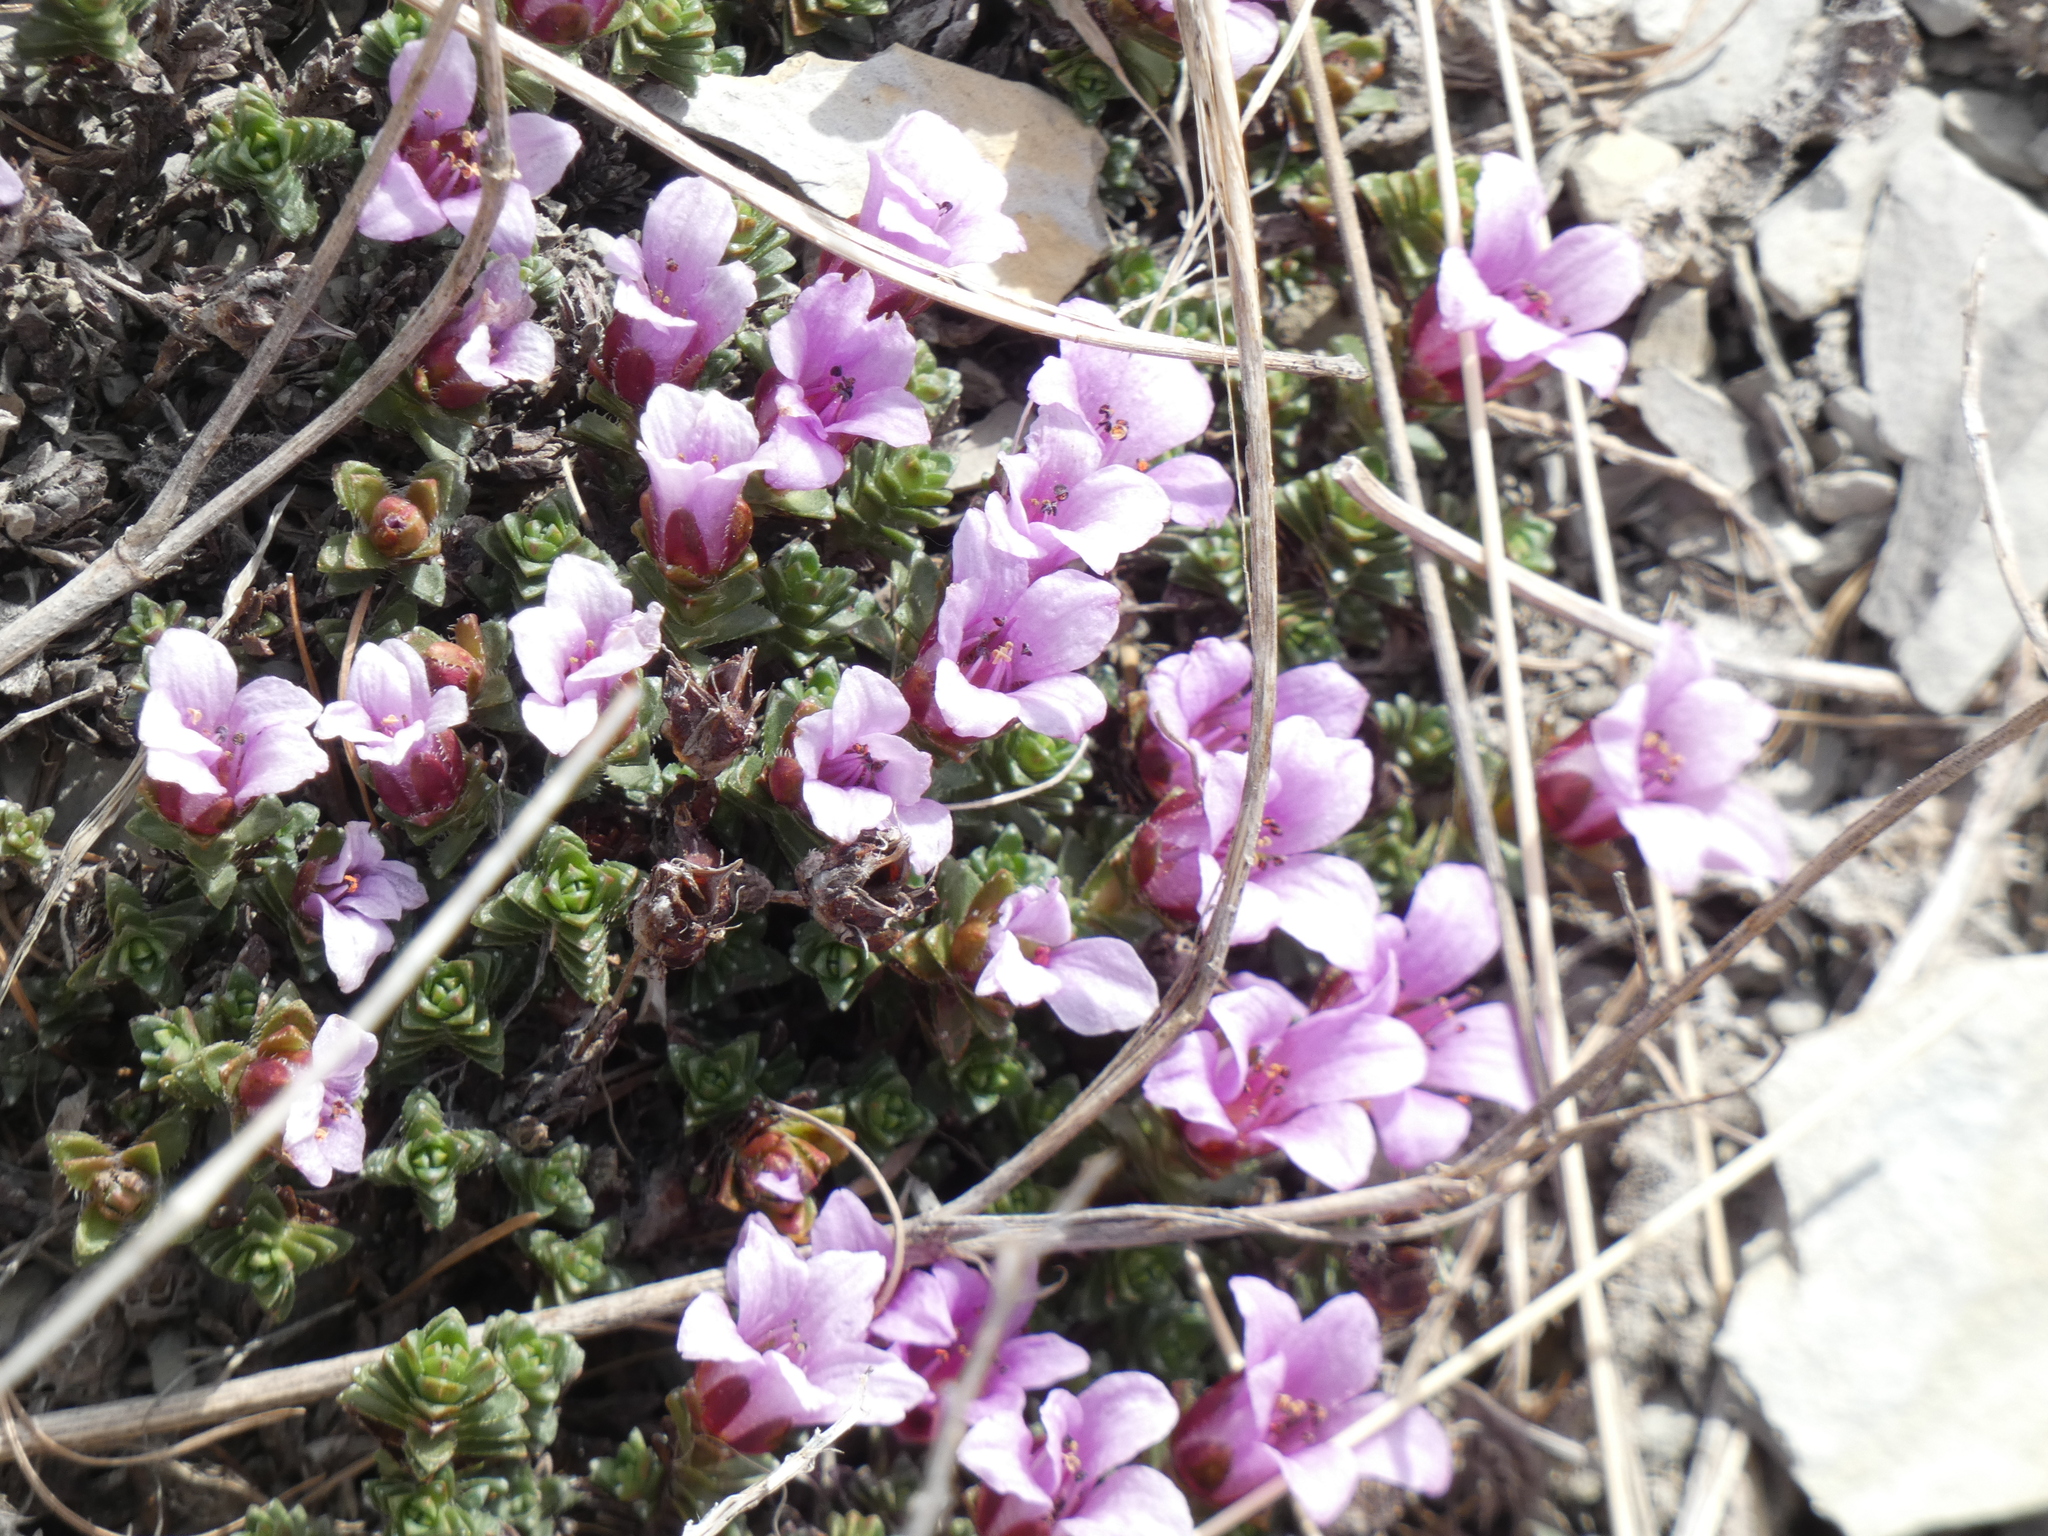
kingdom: Plantae
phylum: Tracheophyta
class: Magnoliopsida
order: Saxifragales
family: Saxifragaceae
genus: Saxifraga
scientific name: Saxifraga oppositifolia
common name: Purple saxifrage
